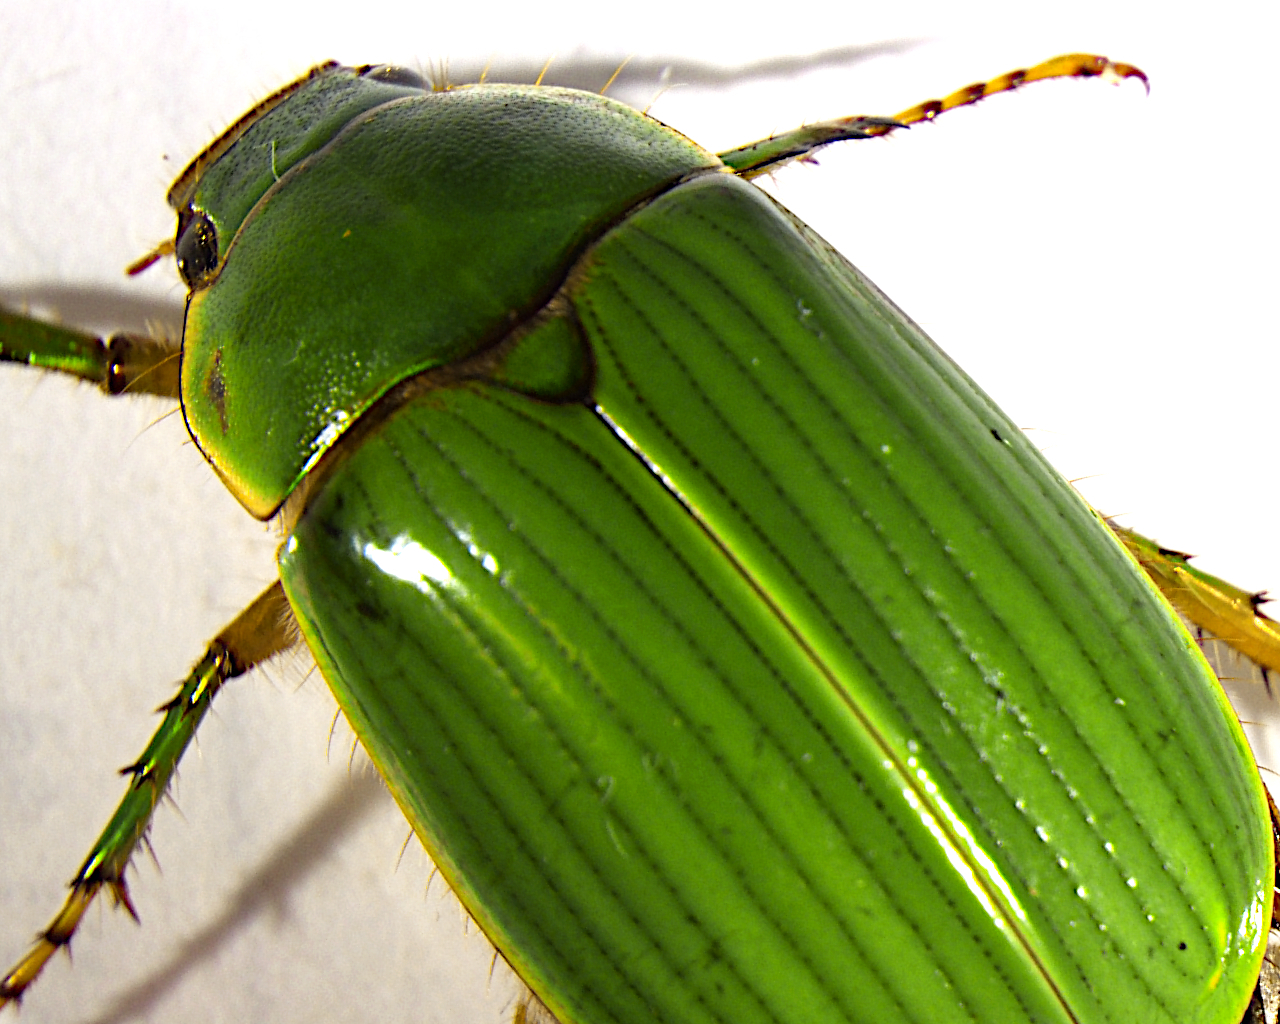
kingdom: Animalia
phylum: Arthropoda
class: Insecta
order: Coleoptera
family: Scarabaeidae
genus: Stethaspis
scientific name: Stethaspis longicornis
